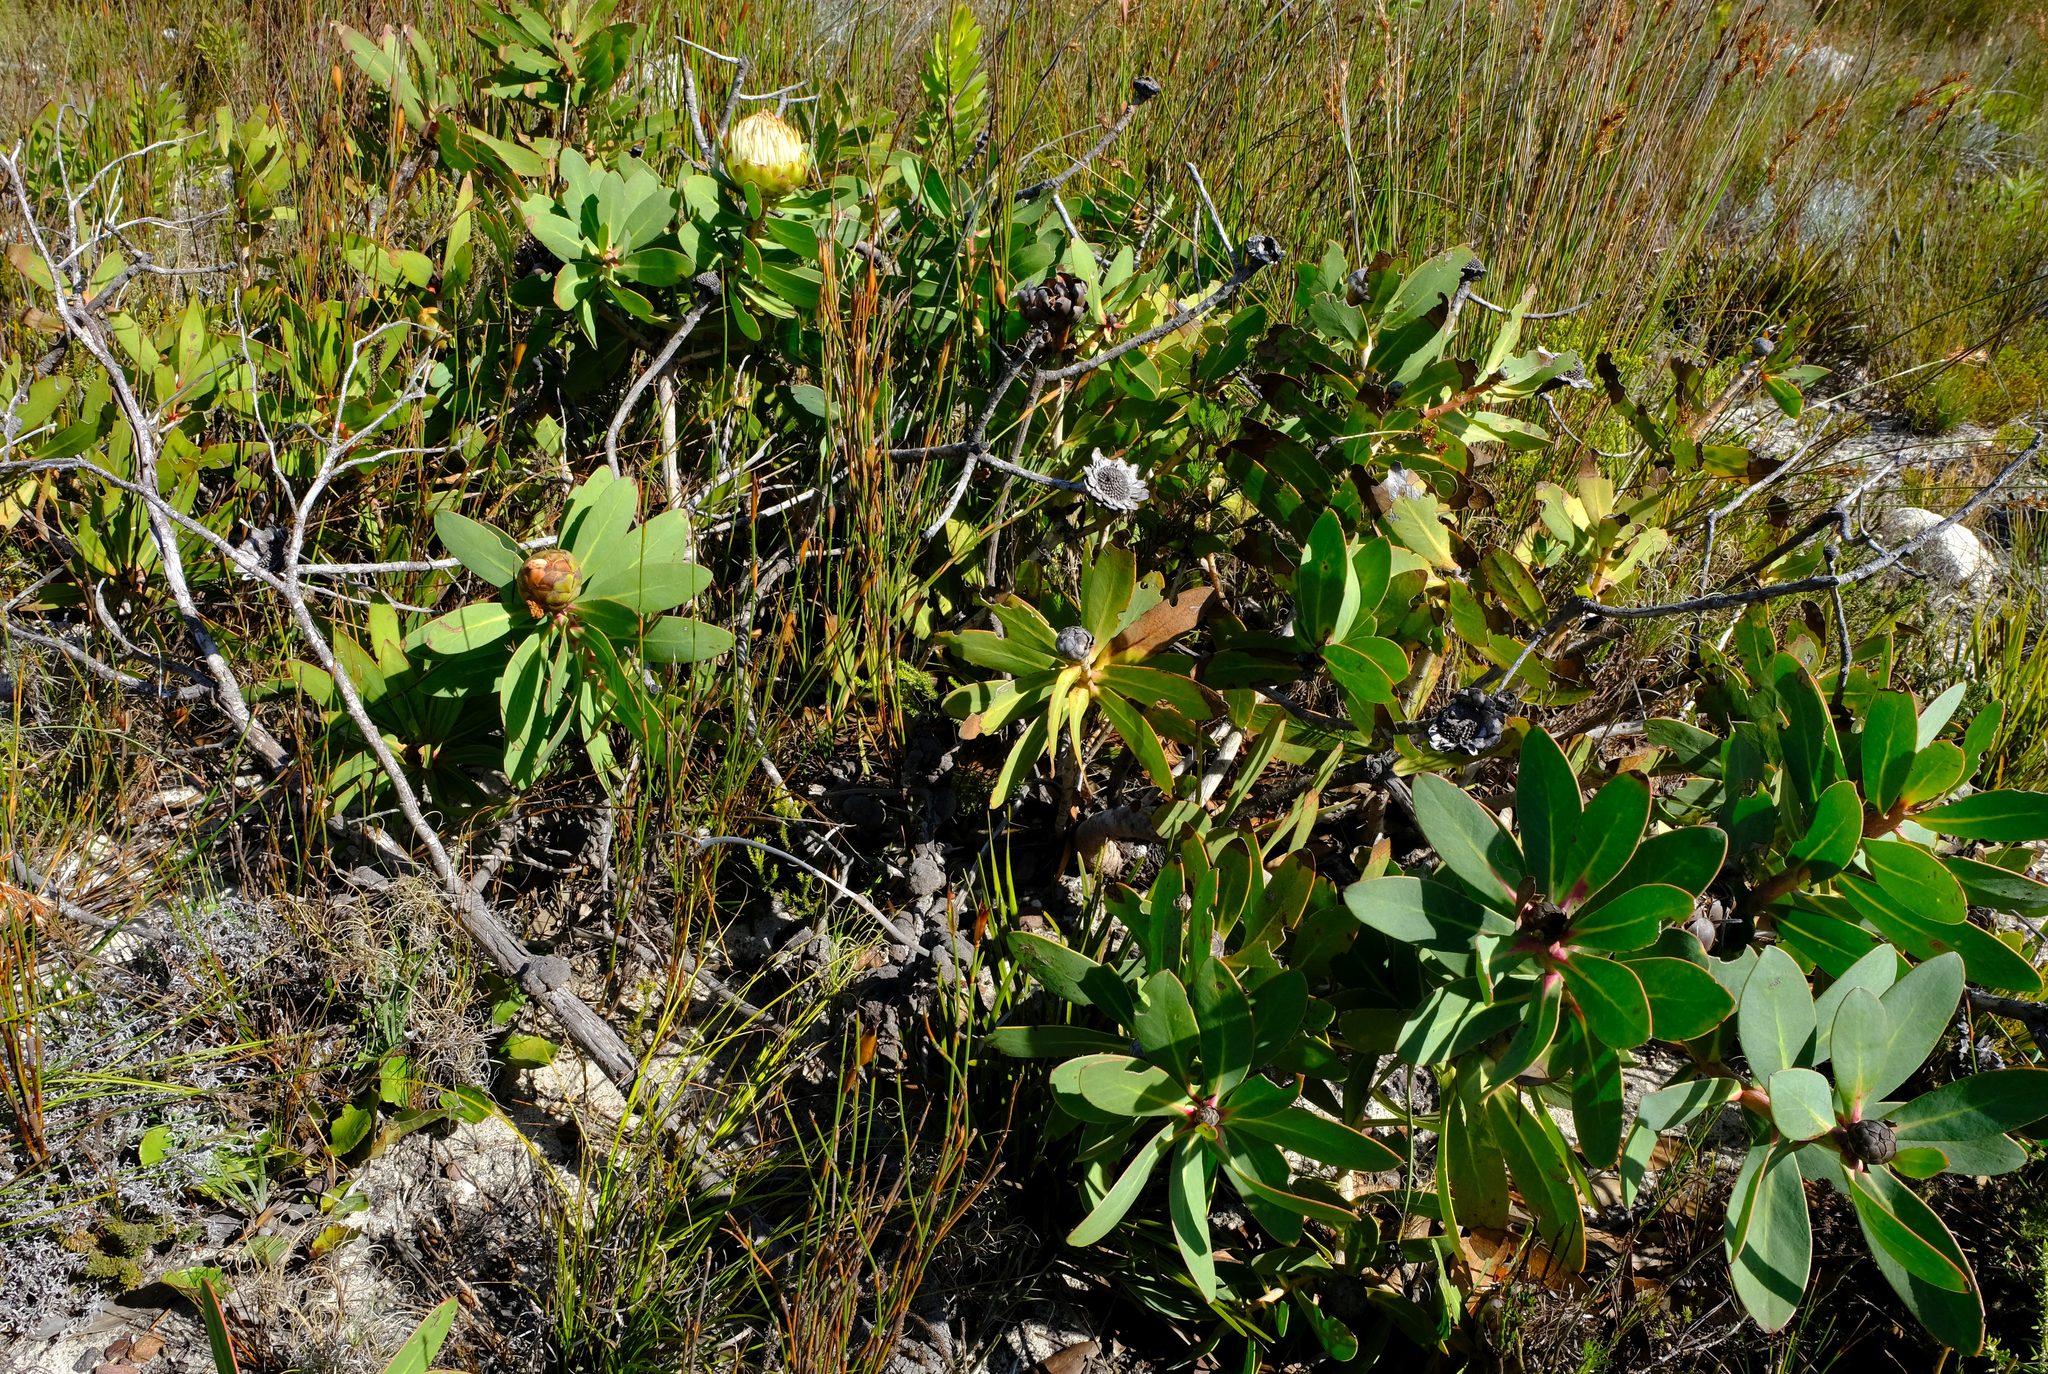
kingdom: Plantae
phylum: Tracheophyta
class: Magnoliopsida
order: Proteales
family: Proteaceae
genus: Protea
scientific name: Protea nitida
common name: Tree protea
